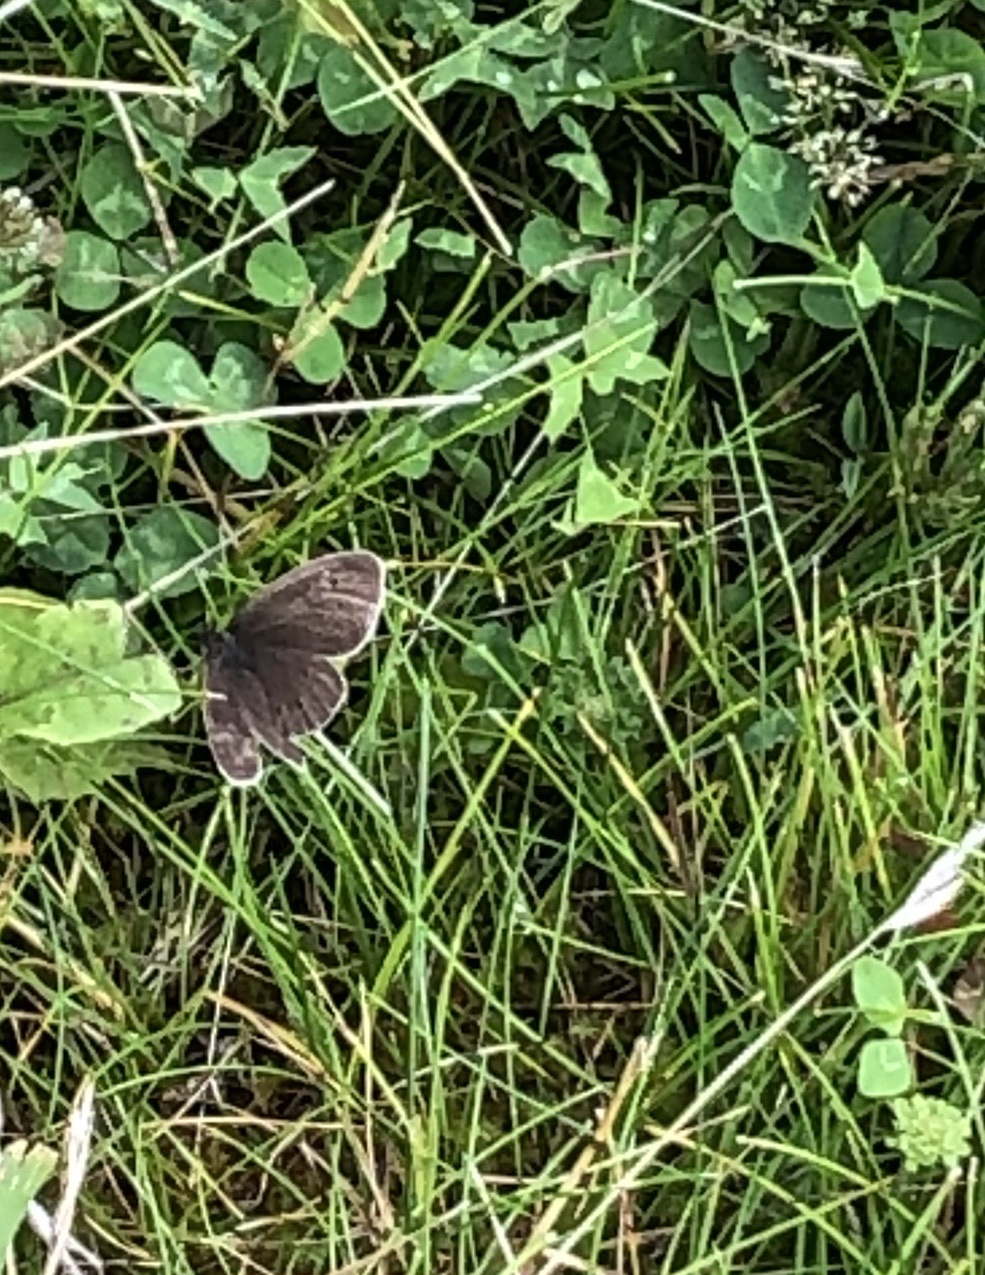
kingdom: Animalia
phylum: Arthropoda
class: Insecta
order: Lepidoptera
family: Nymphalidae
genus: Aphantopus
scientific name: Aphantopus hyperantus
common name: Ringlet
